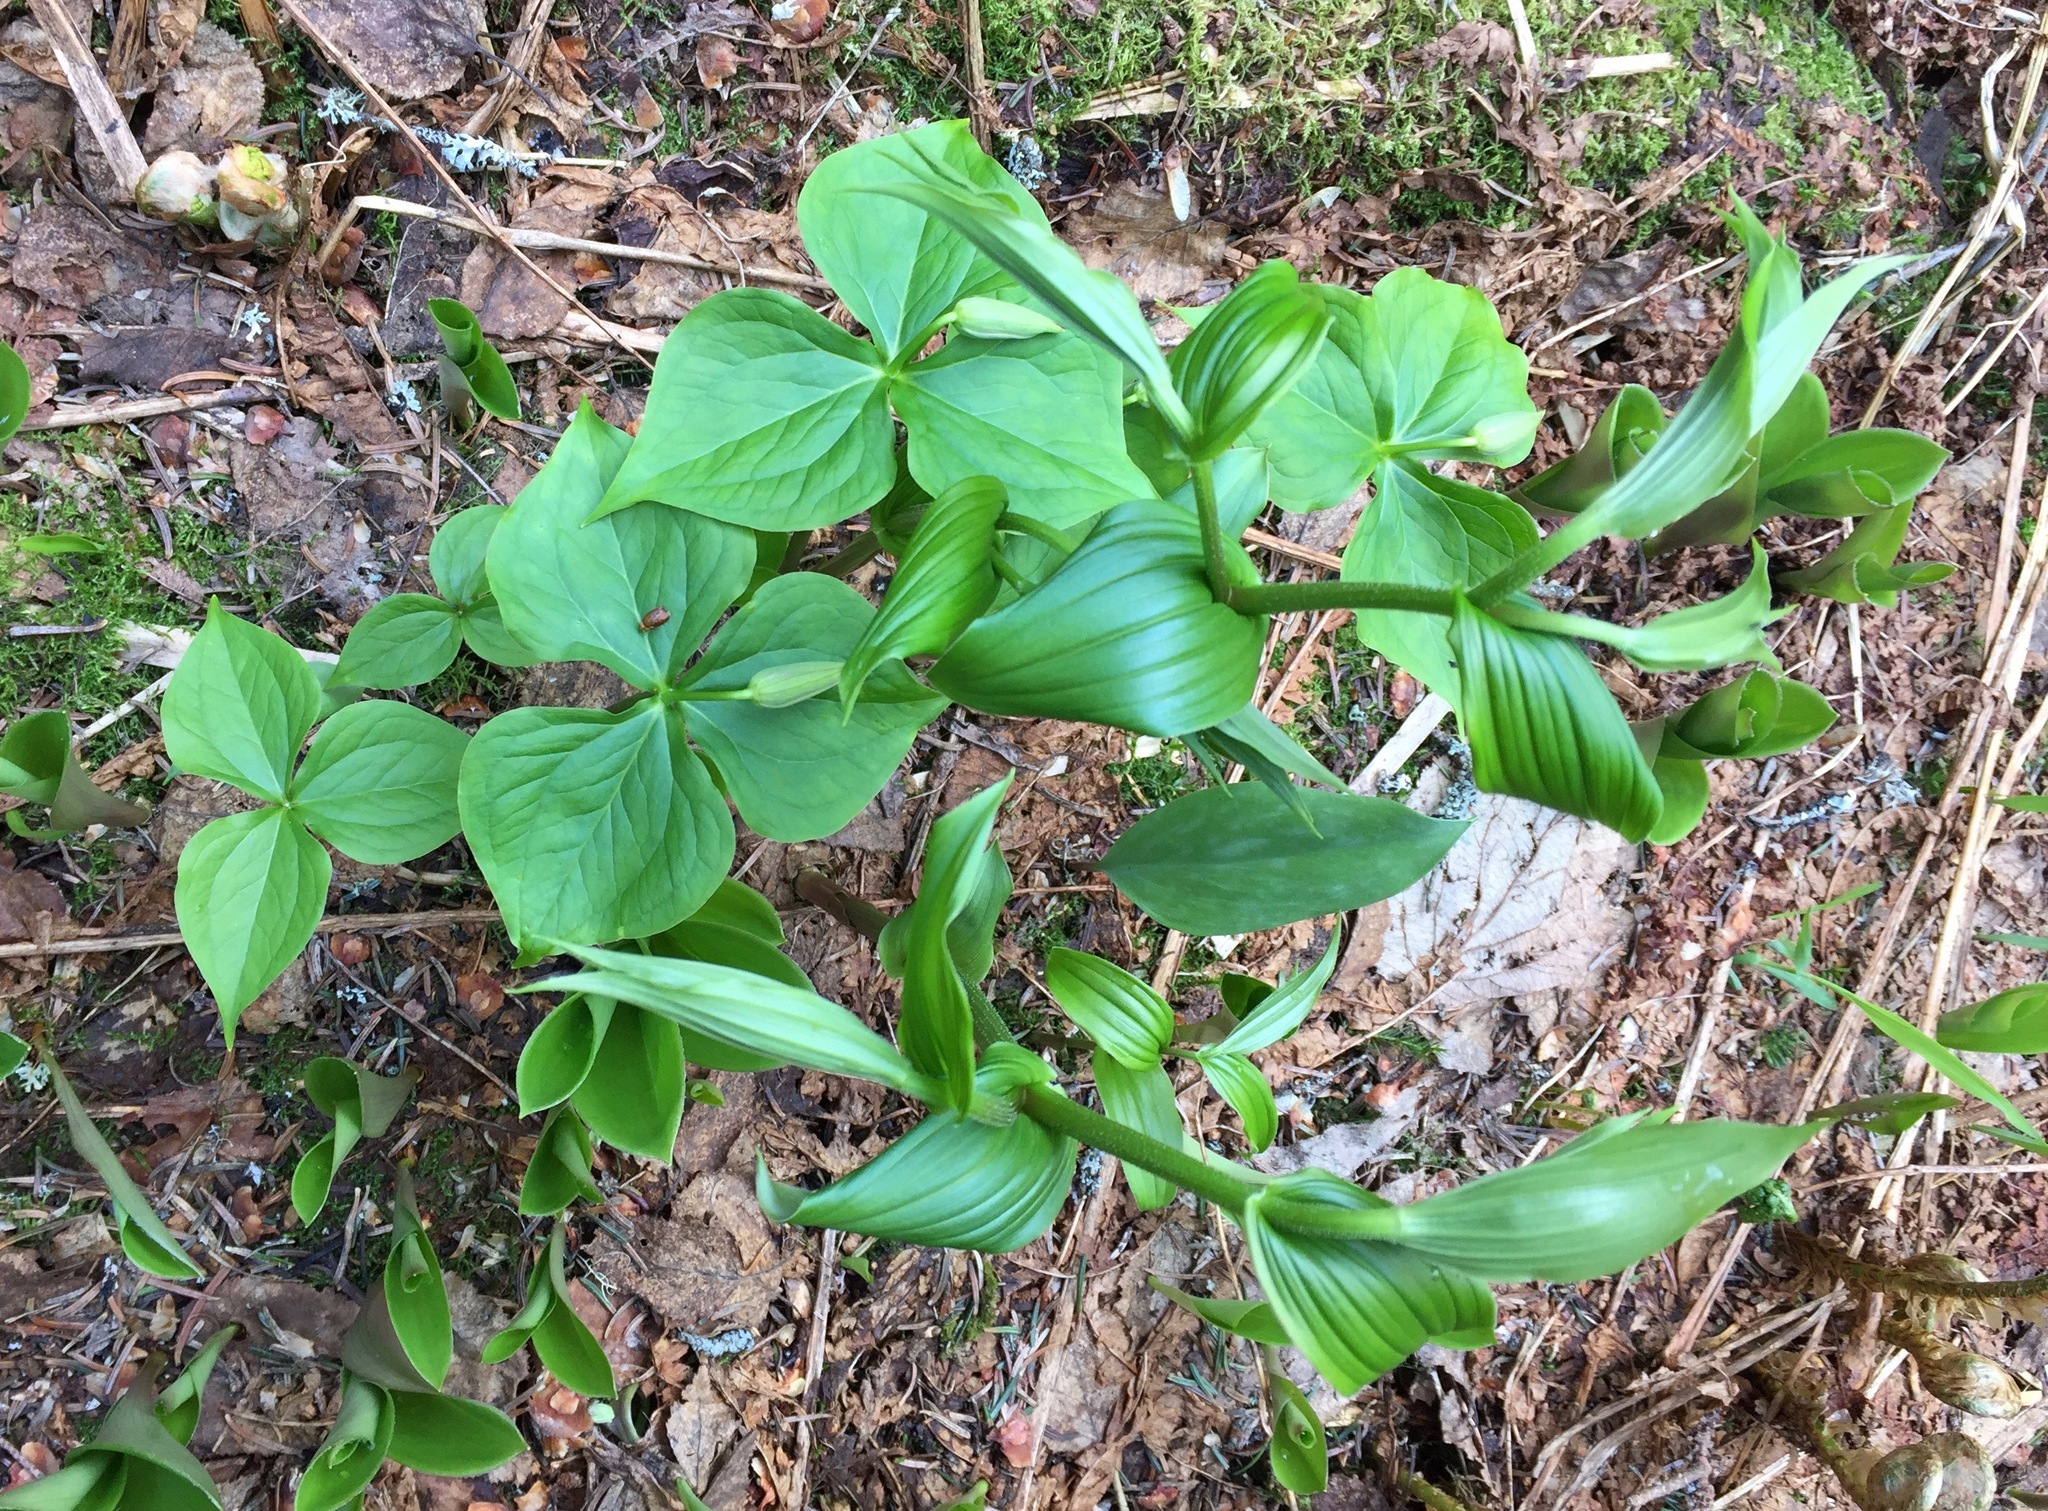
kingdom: Plantae
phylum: Tracheophyta
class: Liliopsida
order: Liliales
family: Melanthiaceae
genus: Trillium
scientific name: Trillium erectum
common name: Purple trillium
